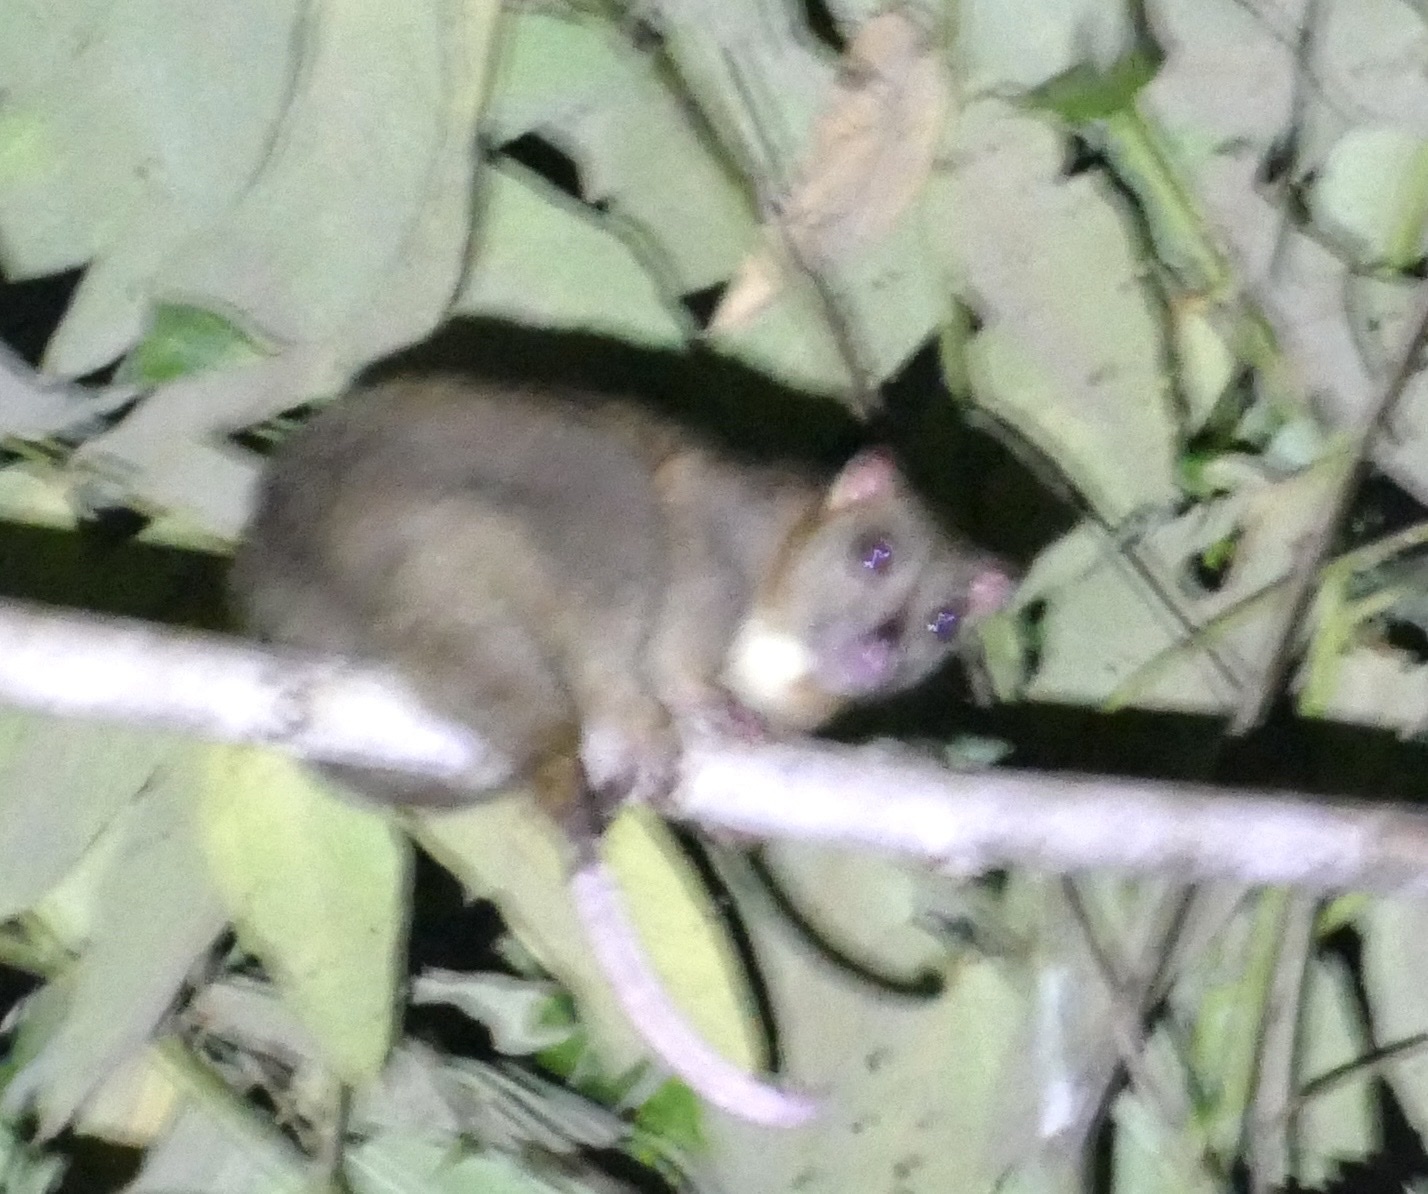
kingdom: Animalia
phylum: Chordata
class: Mammalia
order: Diprotodontia
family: Phalangeridae
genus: Phalanger
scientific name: Phalanger orientalis
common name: Northern common cuscus
